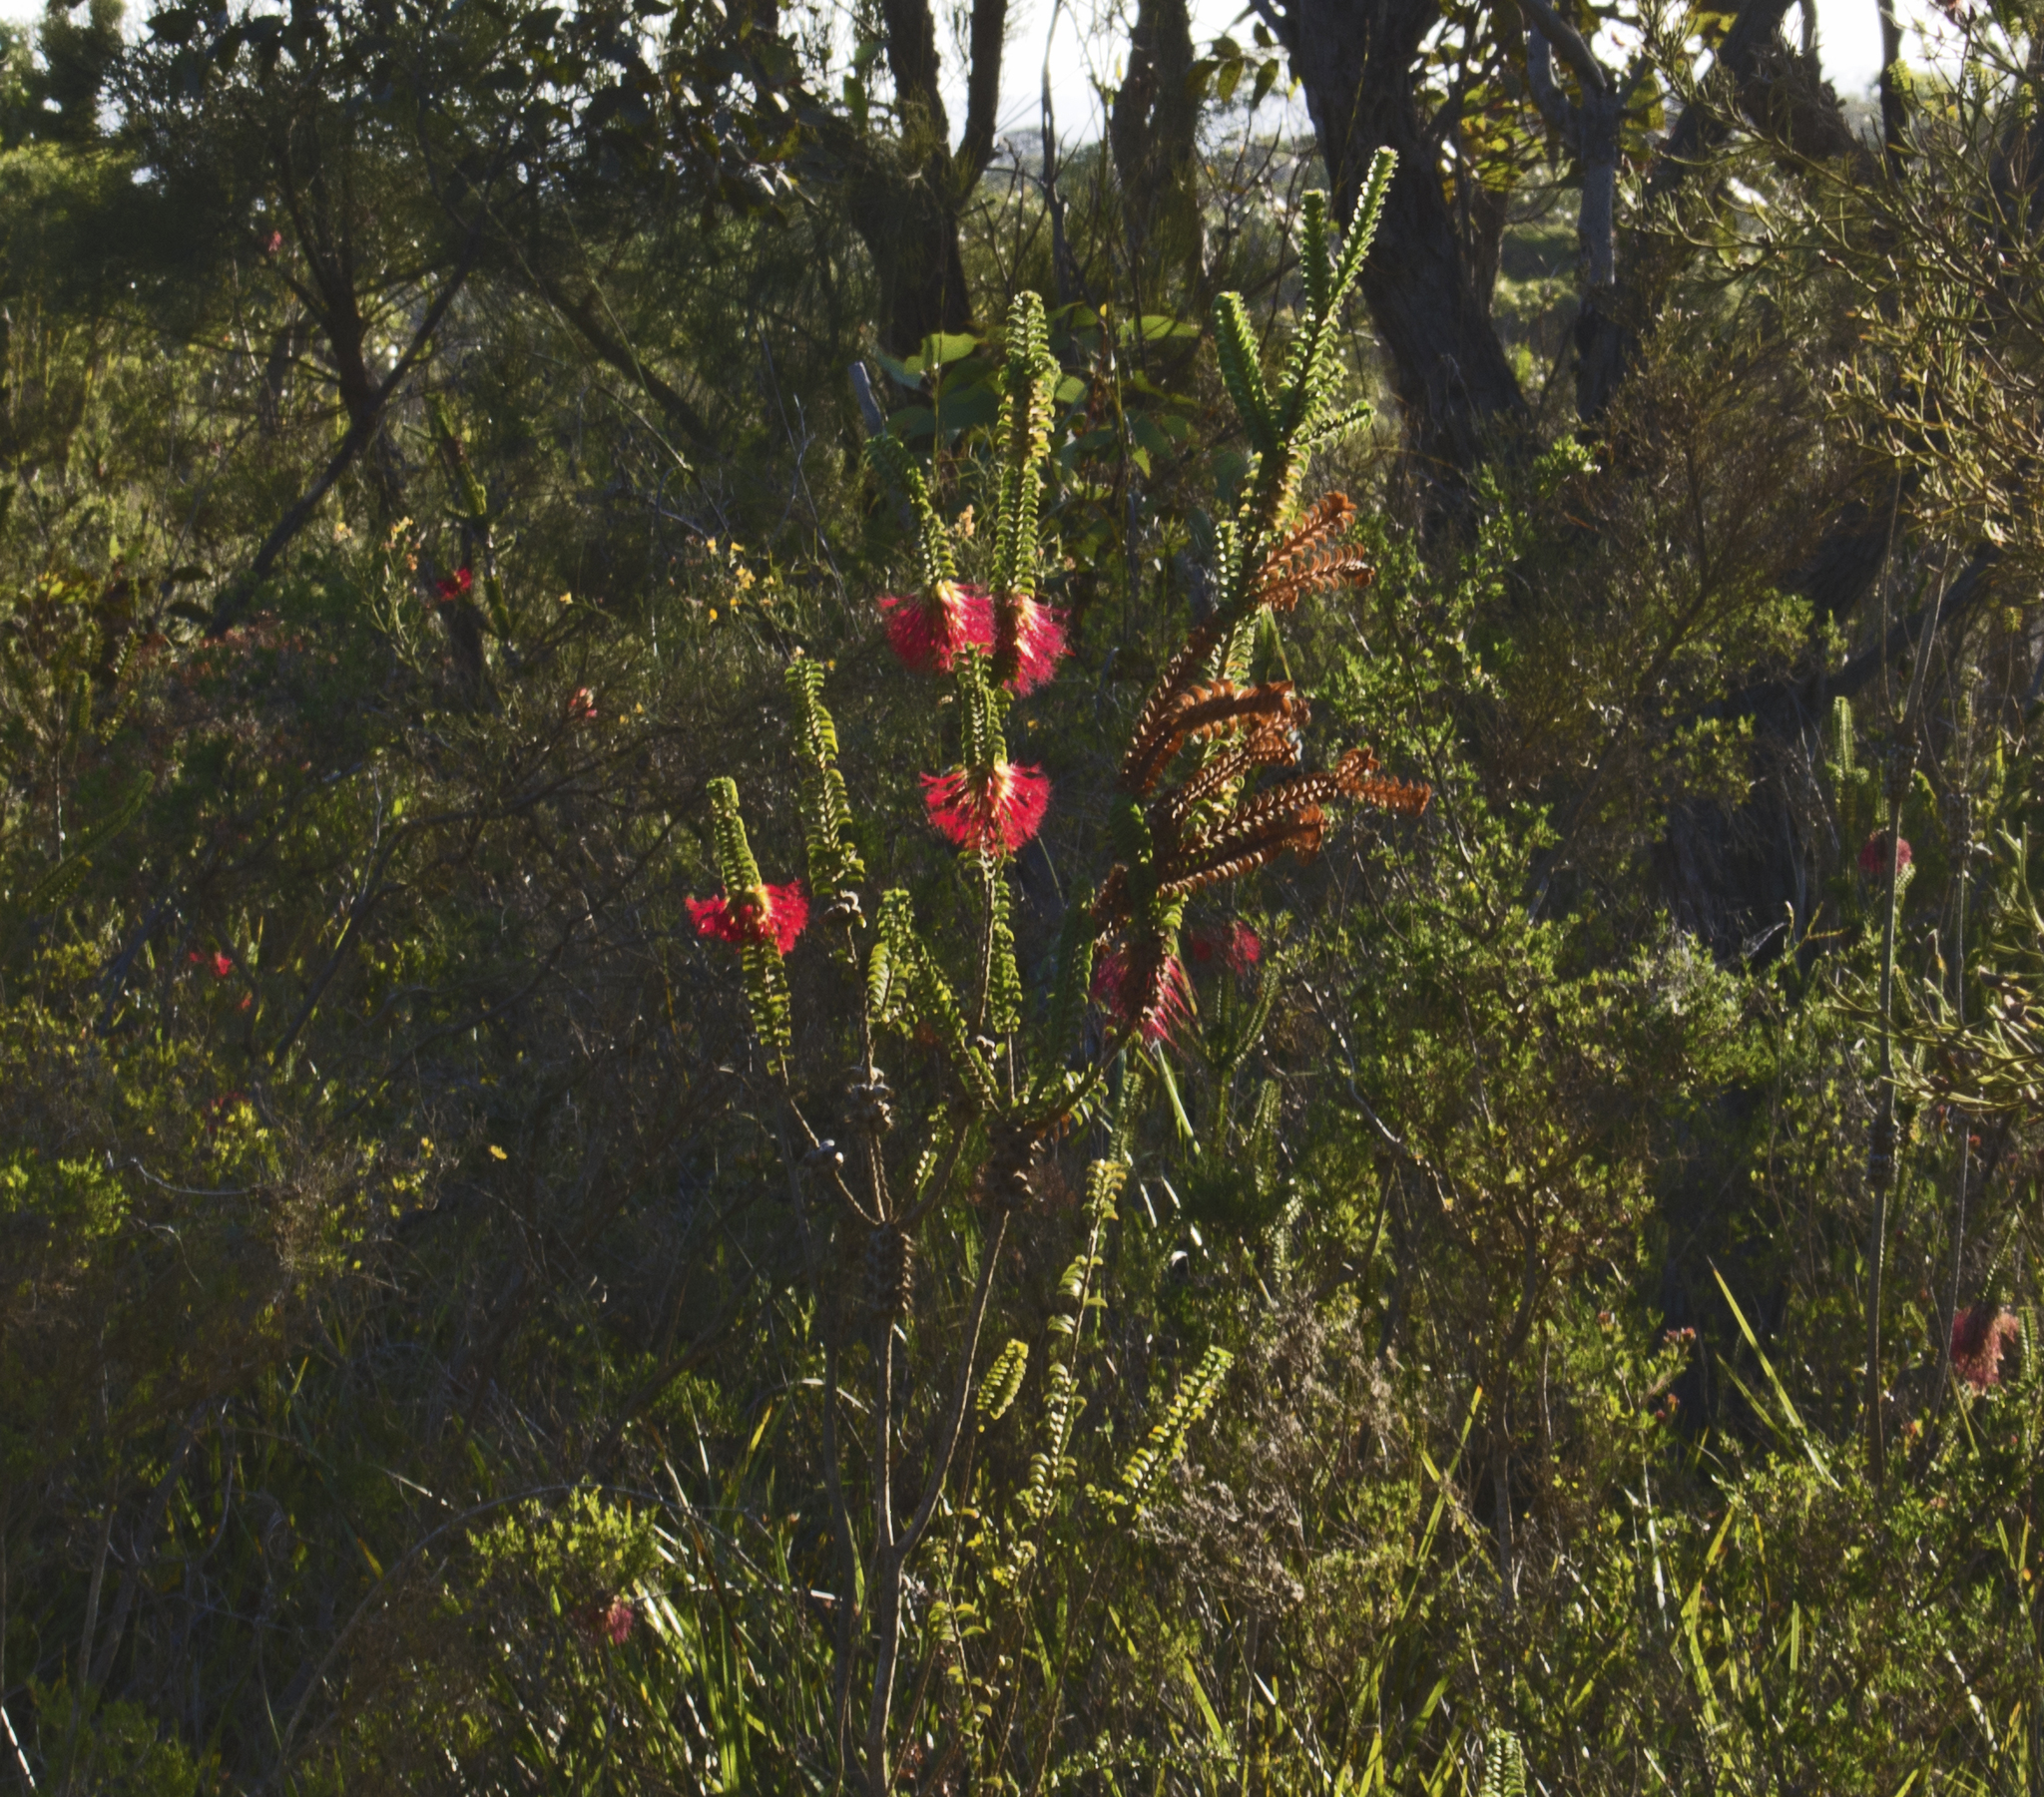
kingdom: Plantae
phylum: Tracheophyta
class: Magnoliopsida
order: Myrtales
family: Myrtaceae
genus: Melaleuca
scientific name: Melaleuca sparsa
